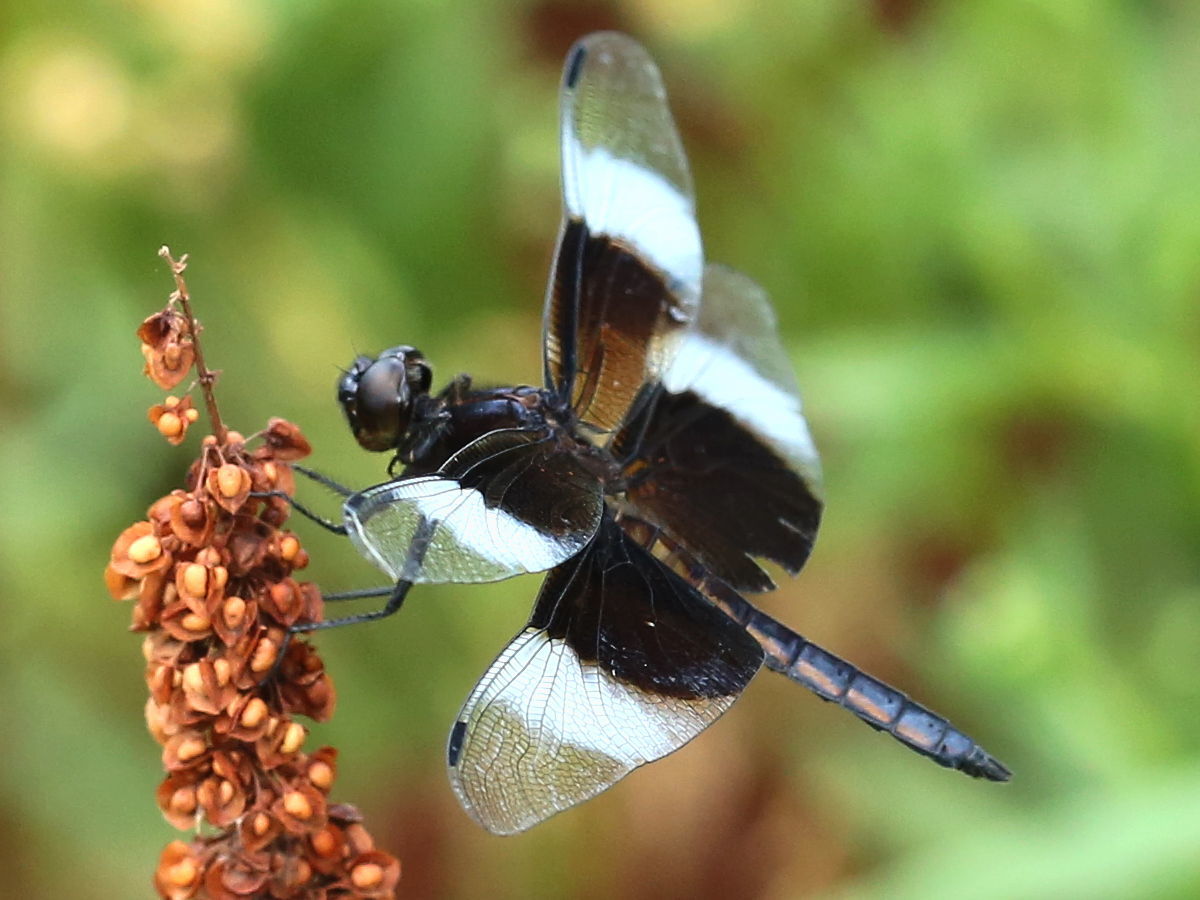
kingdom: Animalia
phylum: Arthropoda
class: Insecta
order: Odonata
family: Libellulidae
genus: Libellula
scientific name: Libellula luctuosa
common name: Widow skimmer
